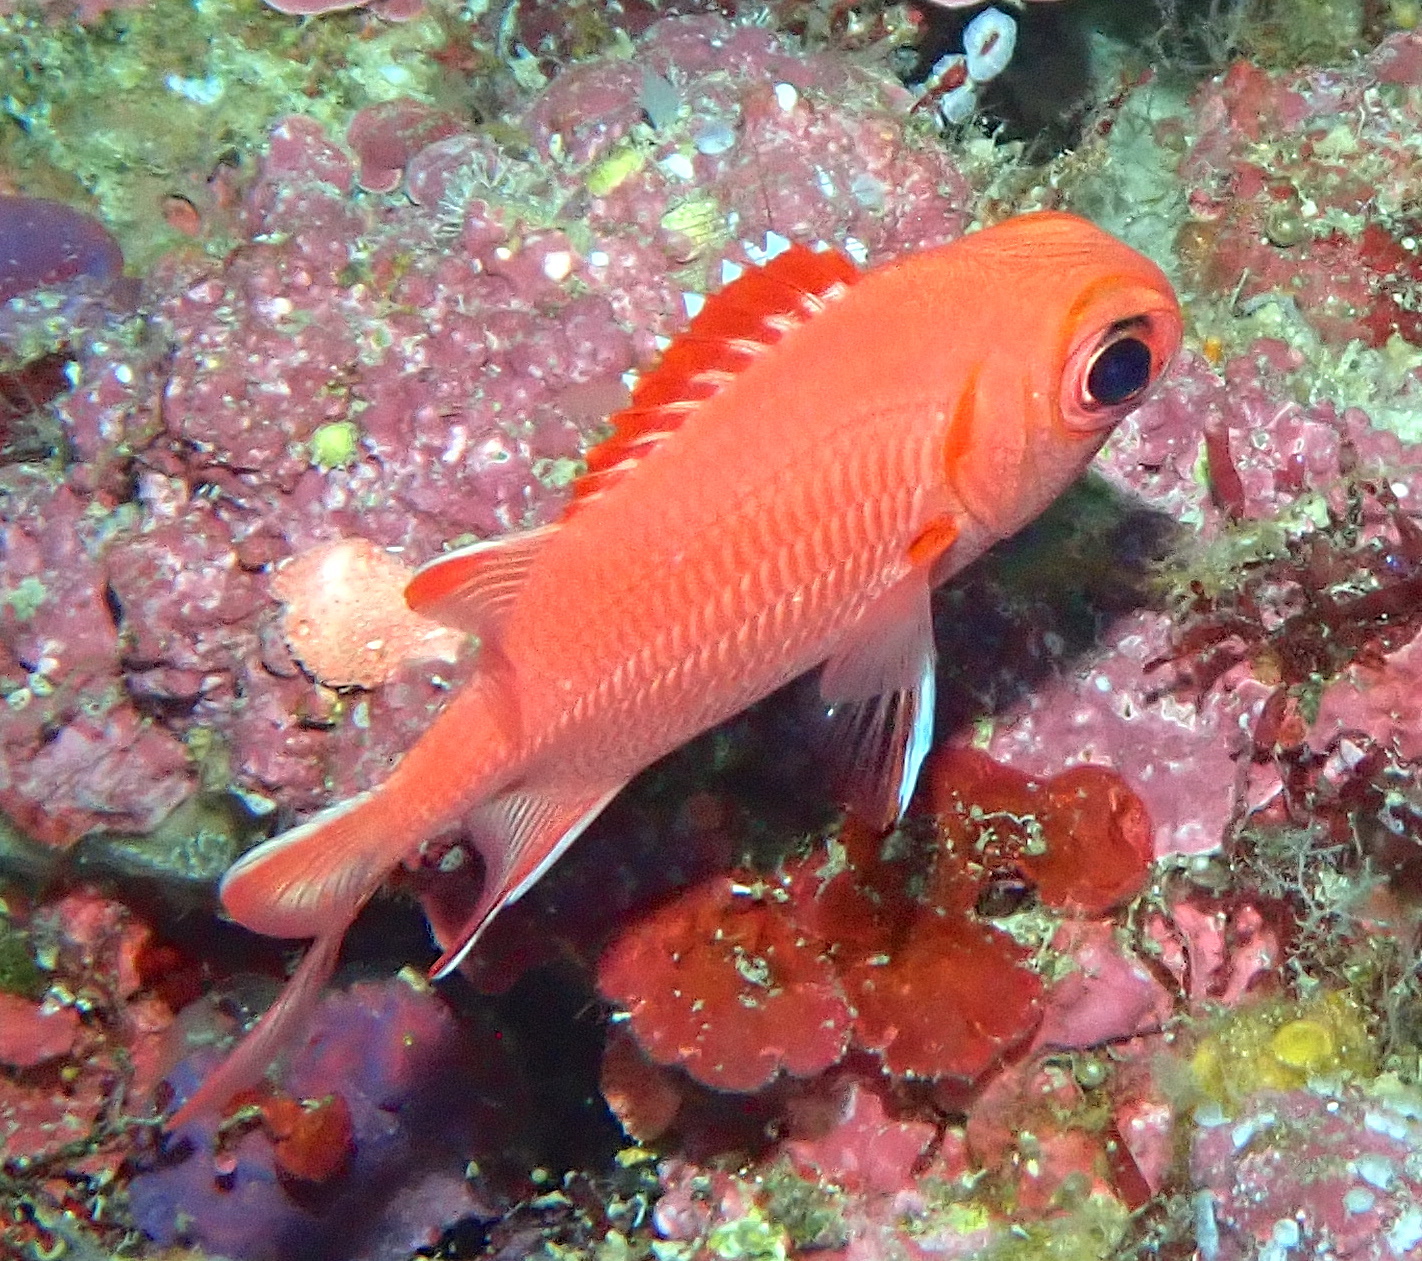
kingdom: Animalia
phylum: Chordata
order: Beryciformes
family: Holocentridae
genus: Myripristis
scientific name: Myripristis vittata
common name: Immaculate squirrelfish
